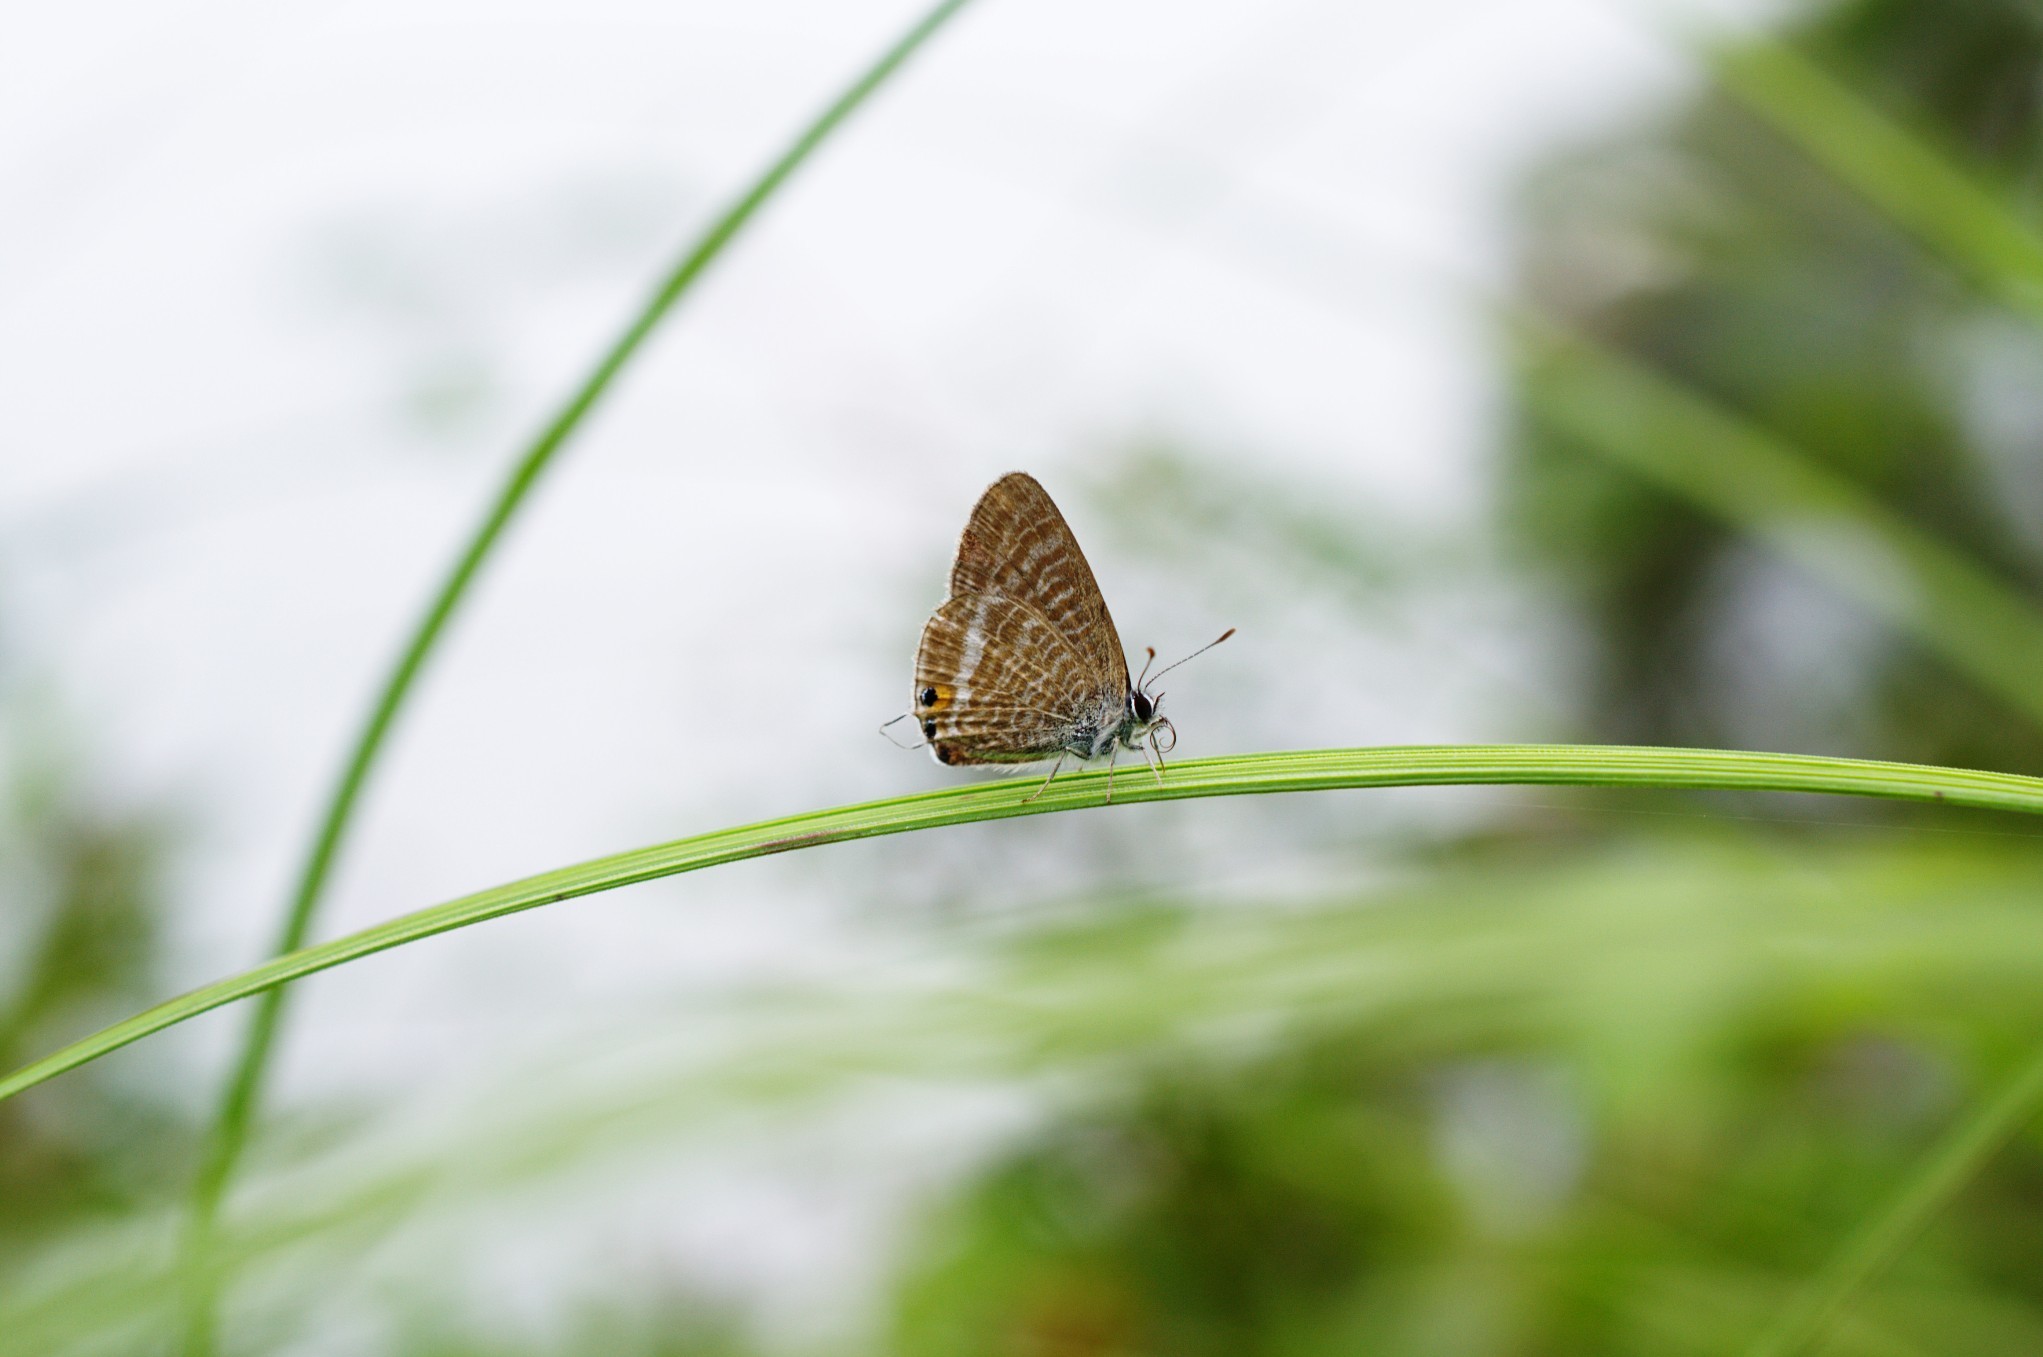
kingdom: Animalia
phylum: Arthropoda
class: Insecta
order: Lepidoptera
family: Lycaenidae
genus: Lampides
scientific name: Lampides boeticus
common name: Long-tailed blue
